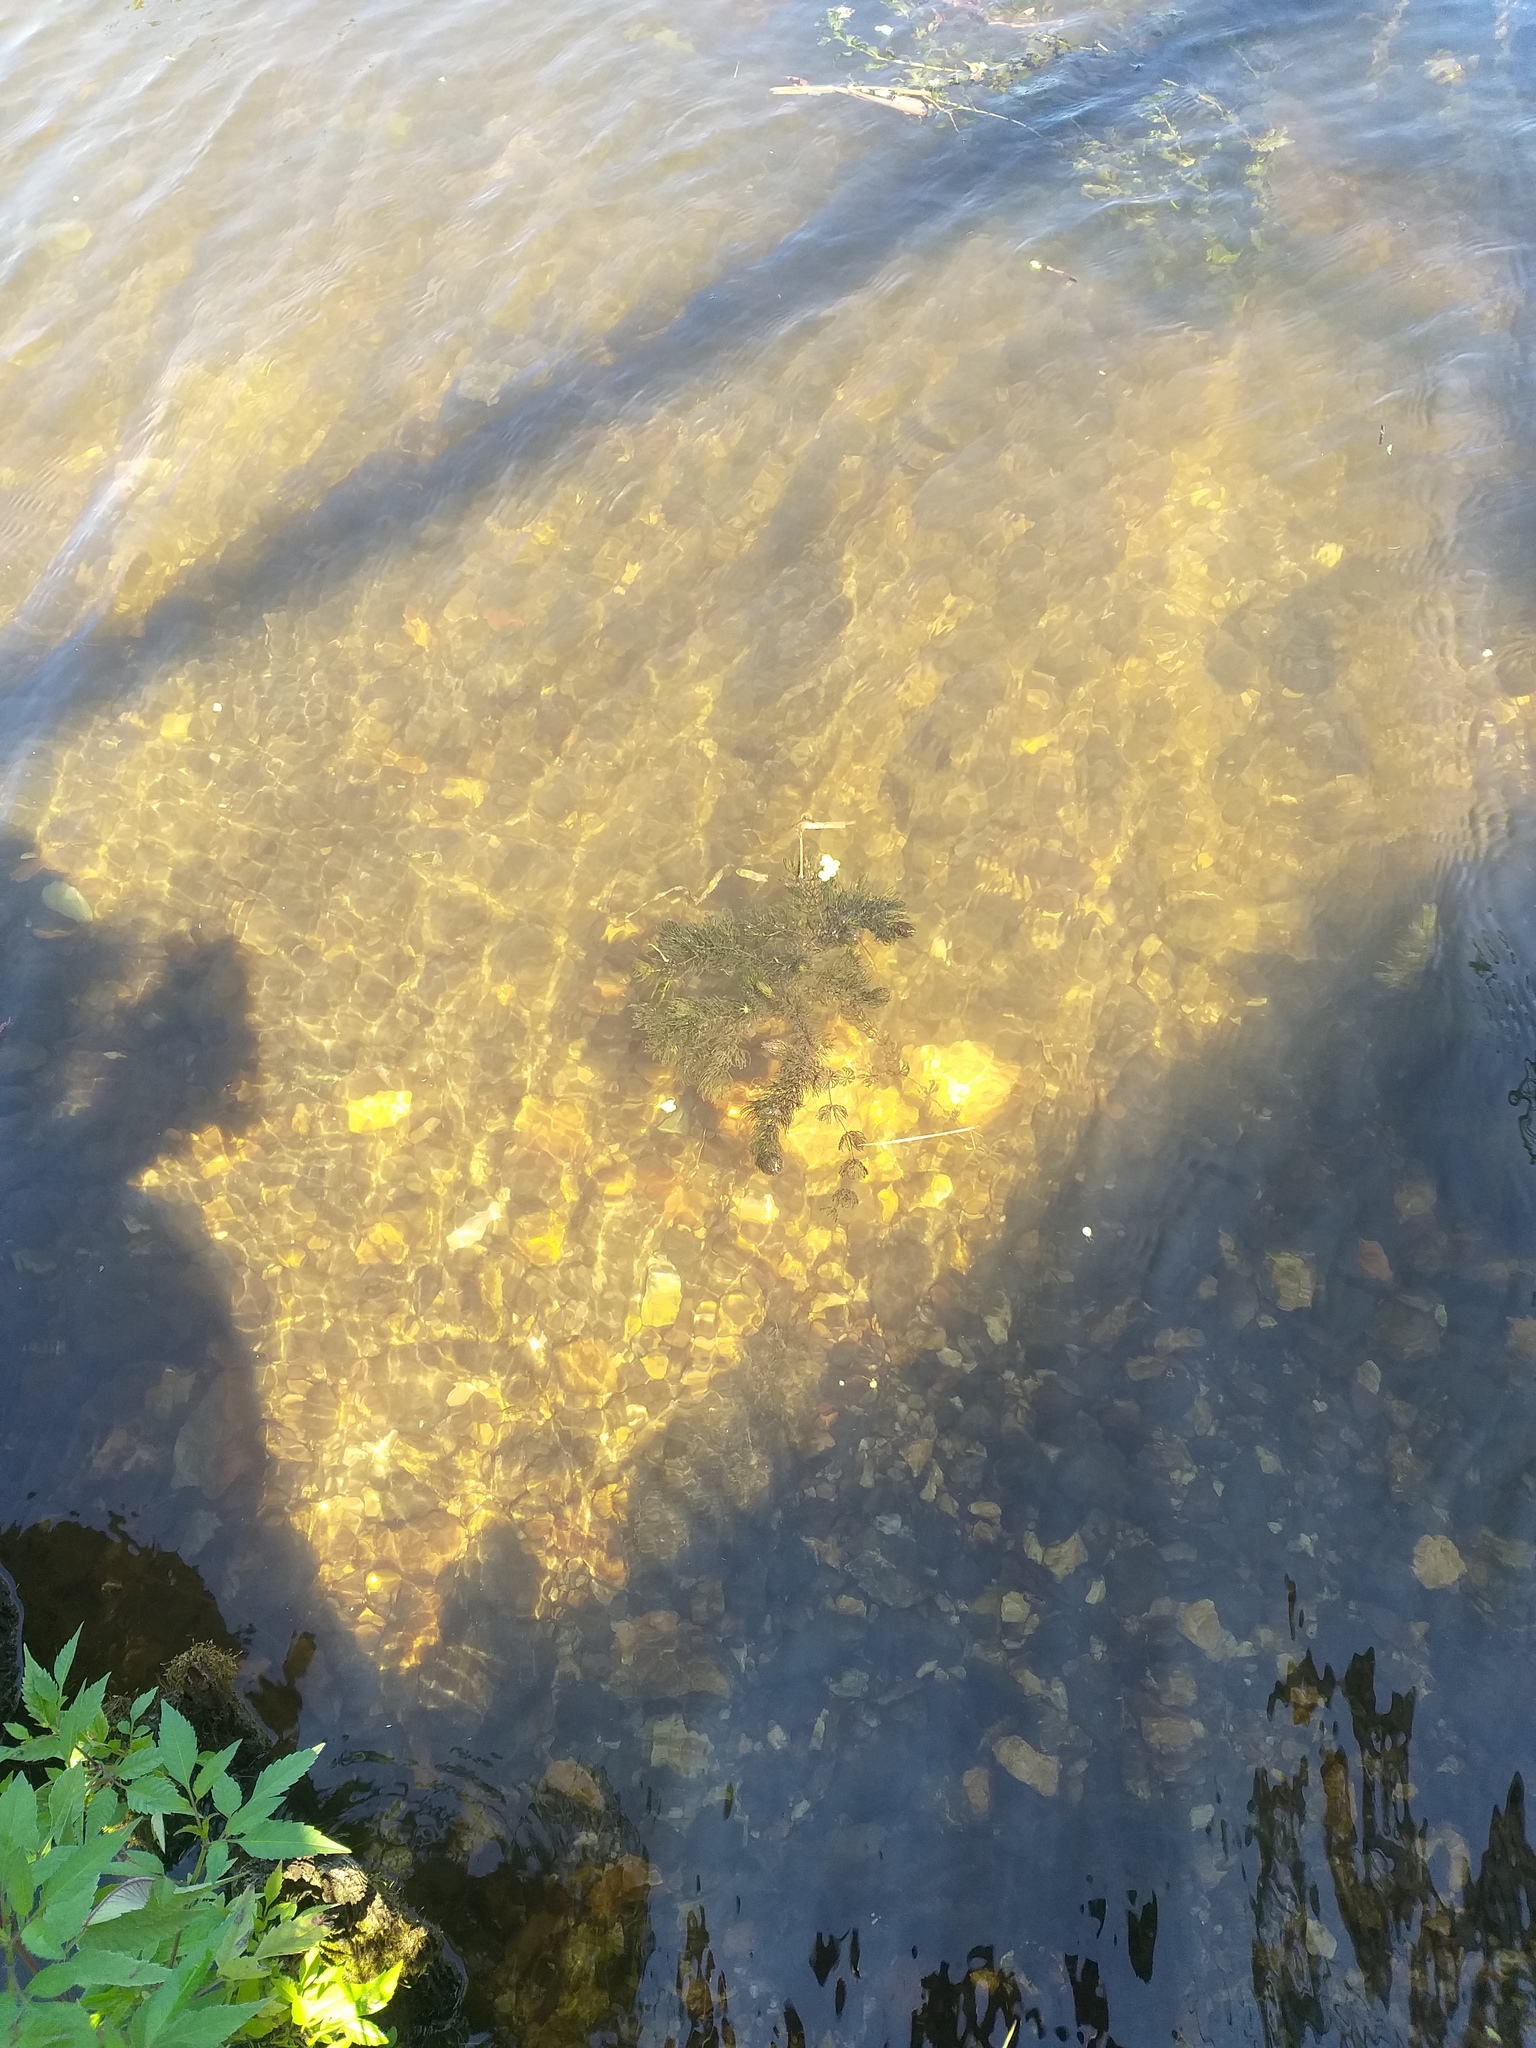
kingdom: Plantae
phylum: Tracheophyta
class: Magnoliopsida
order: Ceratophyllales
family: Ceratophyllaceae
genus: Ceratophyllum
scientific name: Ceratophyllum demersum
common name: Rigid hornwort
